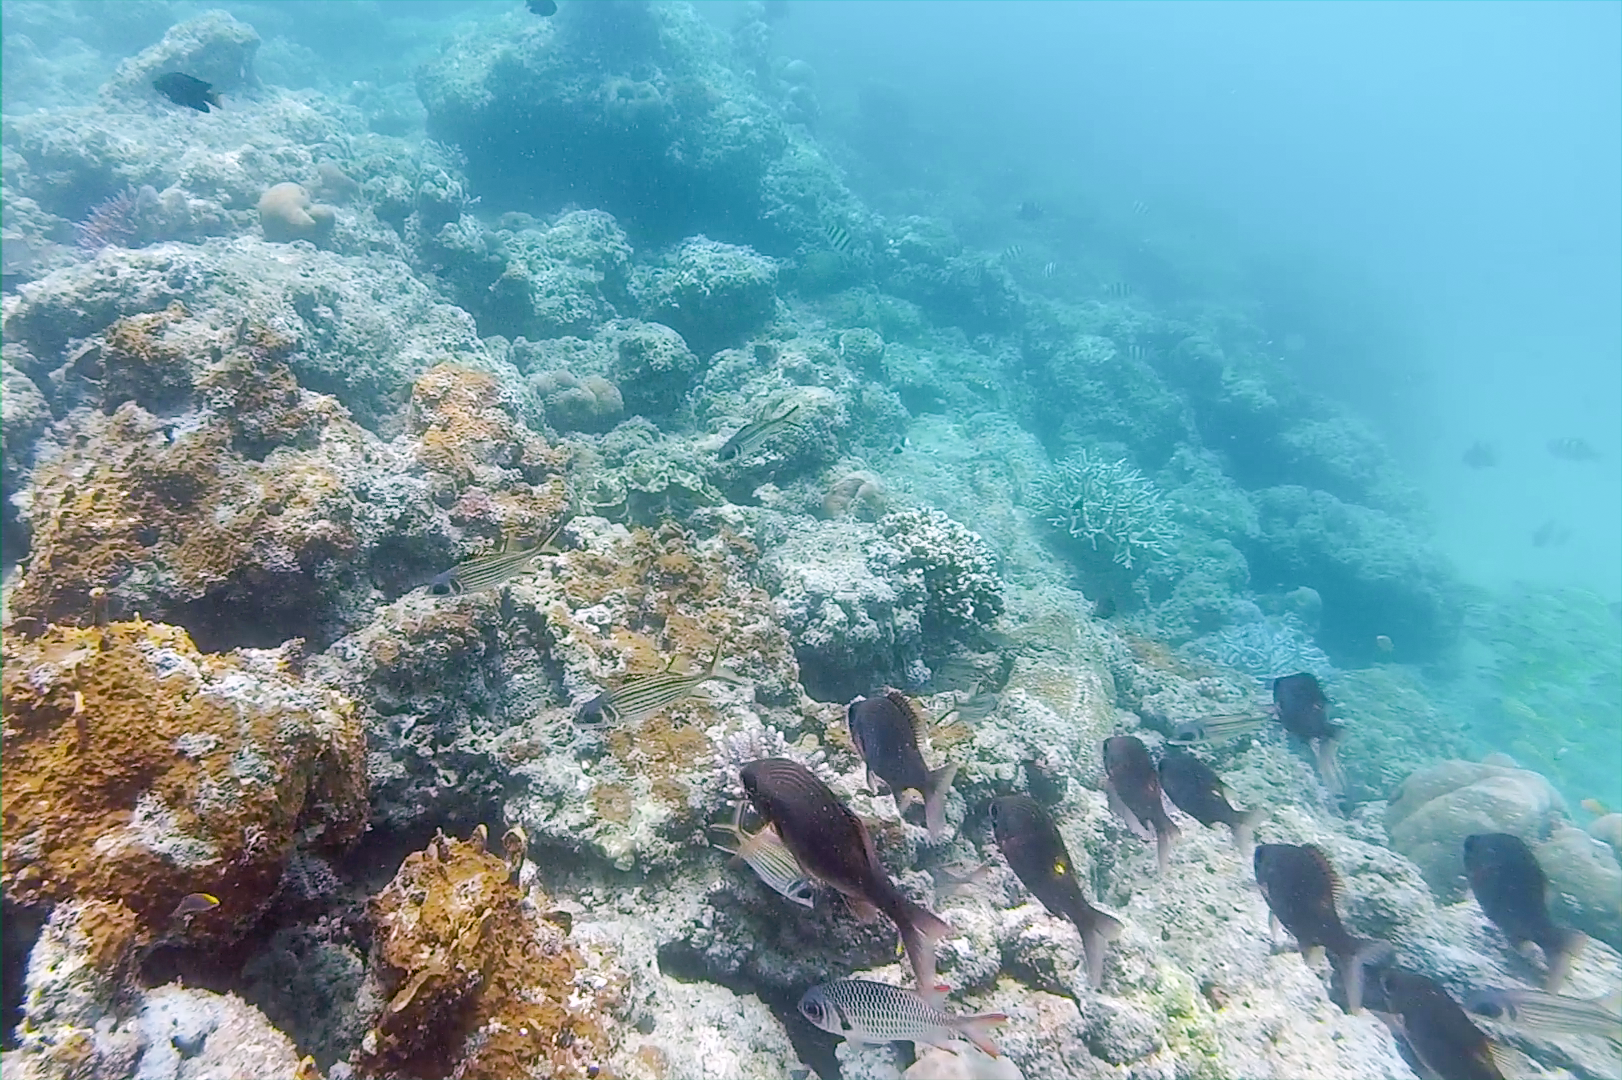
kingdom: Animalia
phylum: Chordata
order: Perciformes
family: Lethrinidae
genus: Gnathodentex
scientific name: Gnathodentex aureolineatus
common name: Gold-lined sea bream
